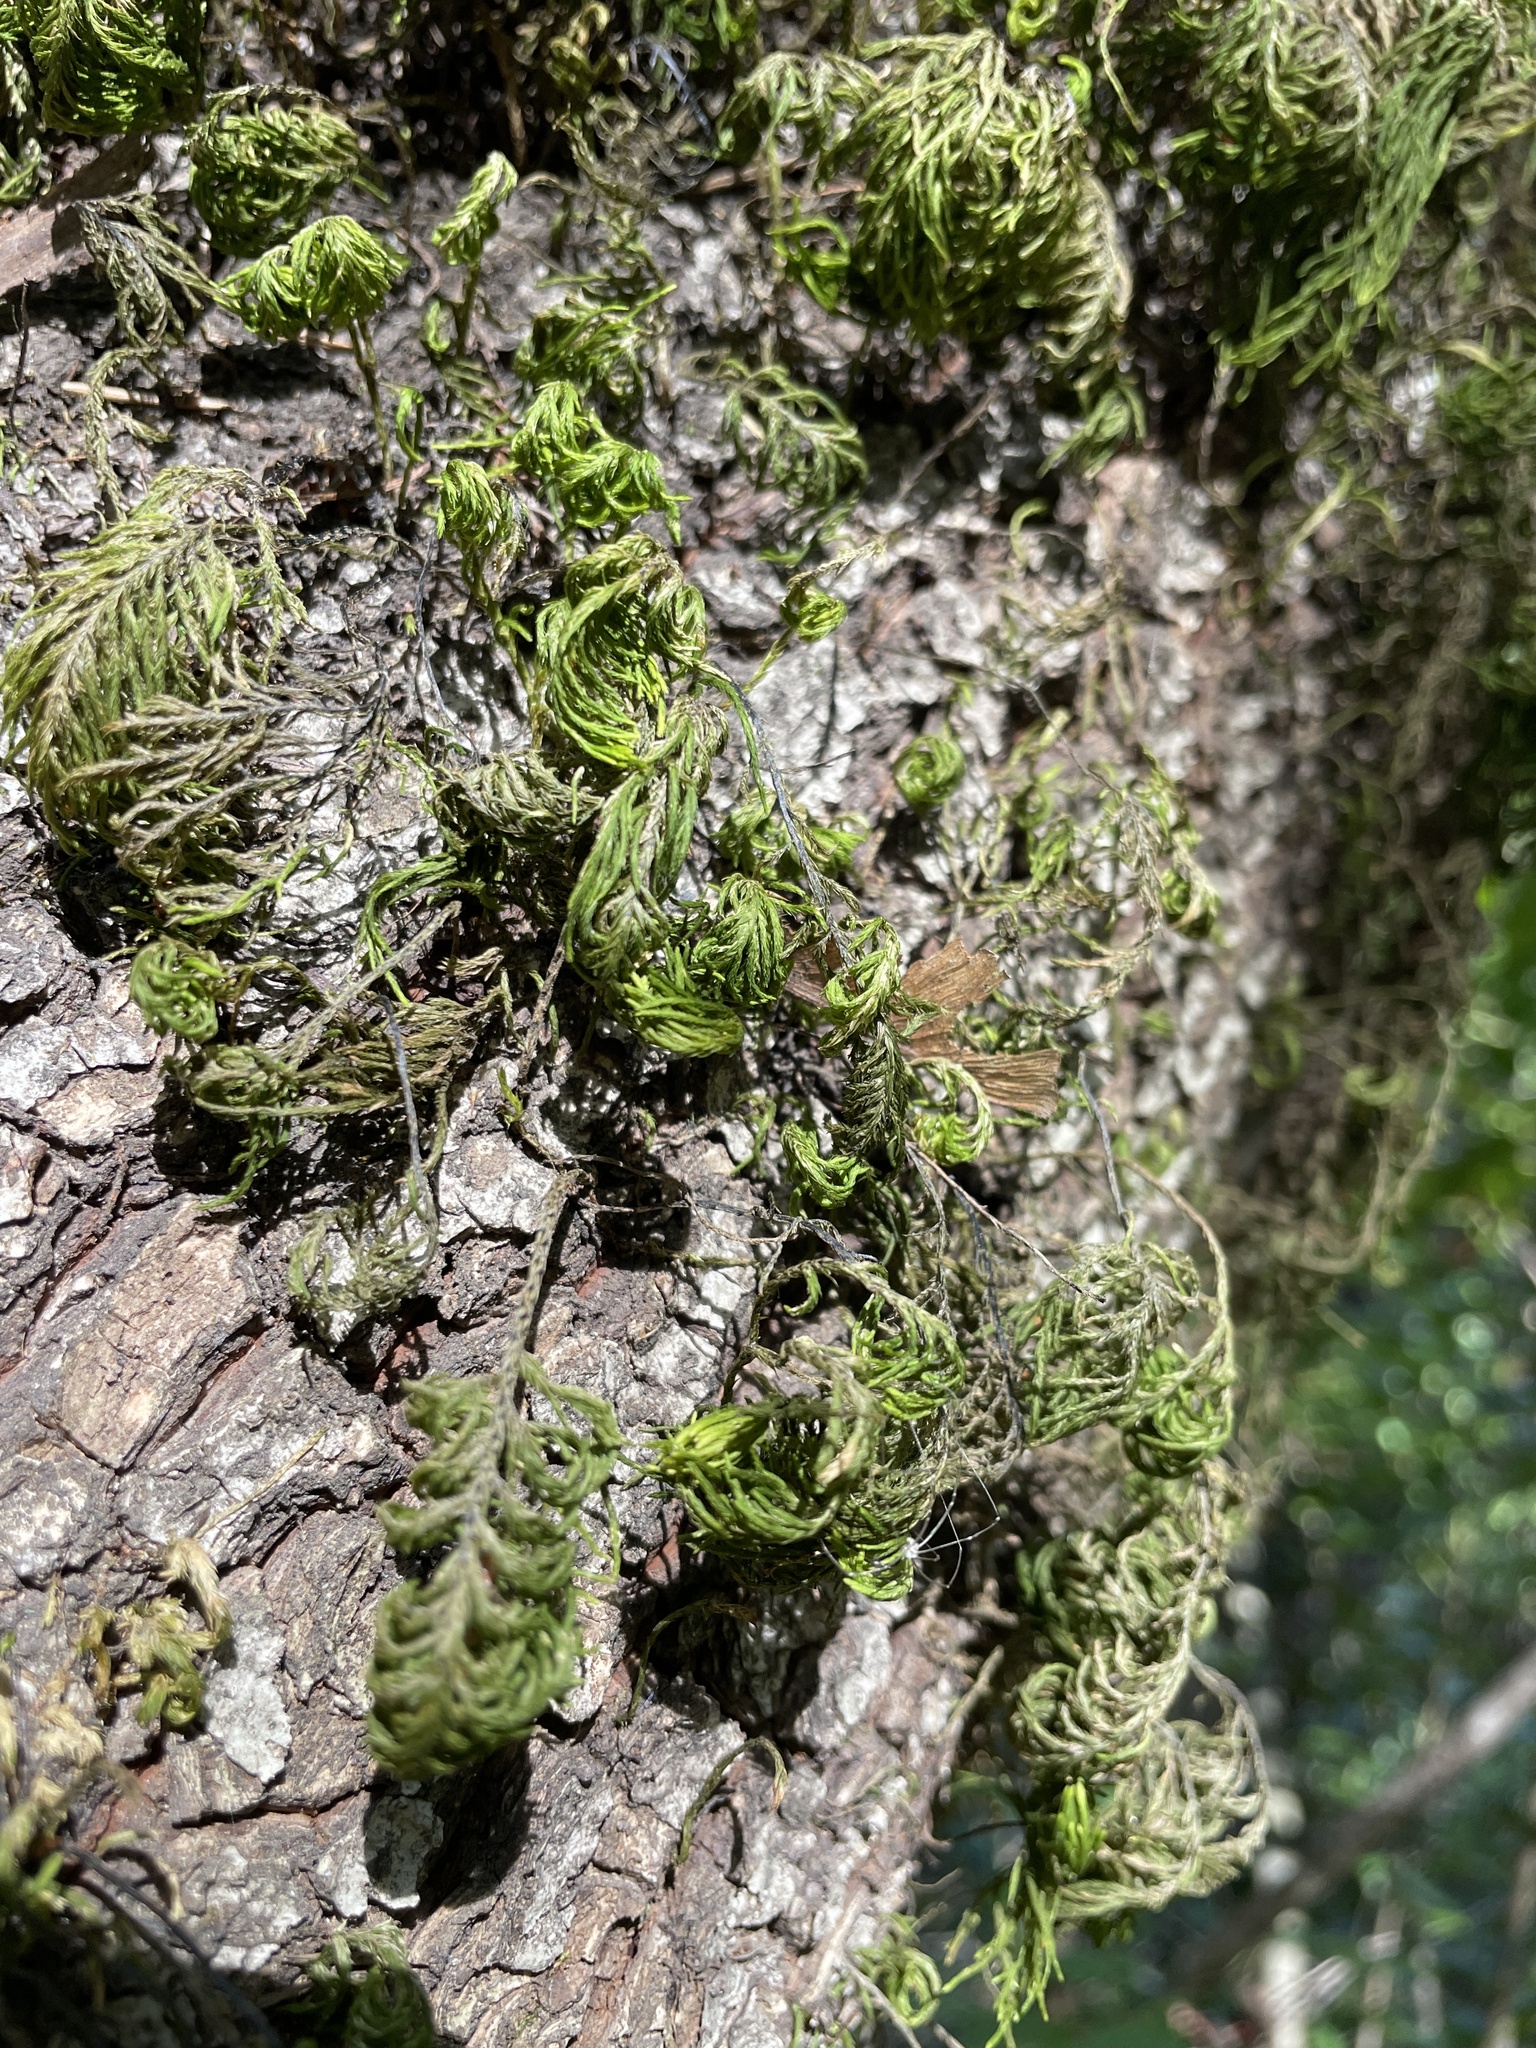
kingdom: Plantae
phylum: Bryophyta
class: Bryopsida
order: Hypnales
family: Cryphaeaceae
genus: Dendroalsia
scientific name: Dendroalsia abietina
